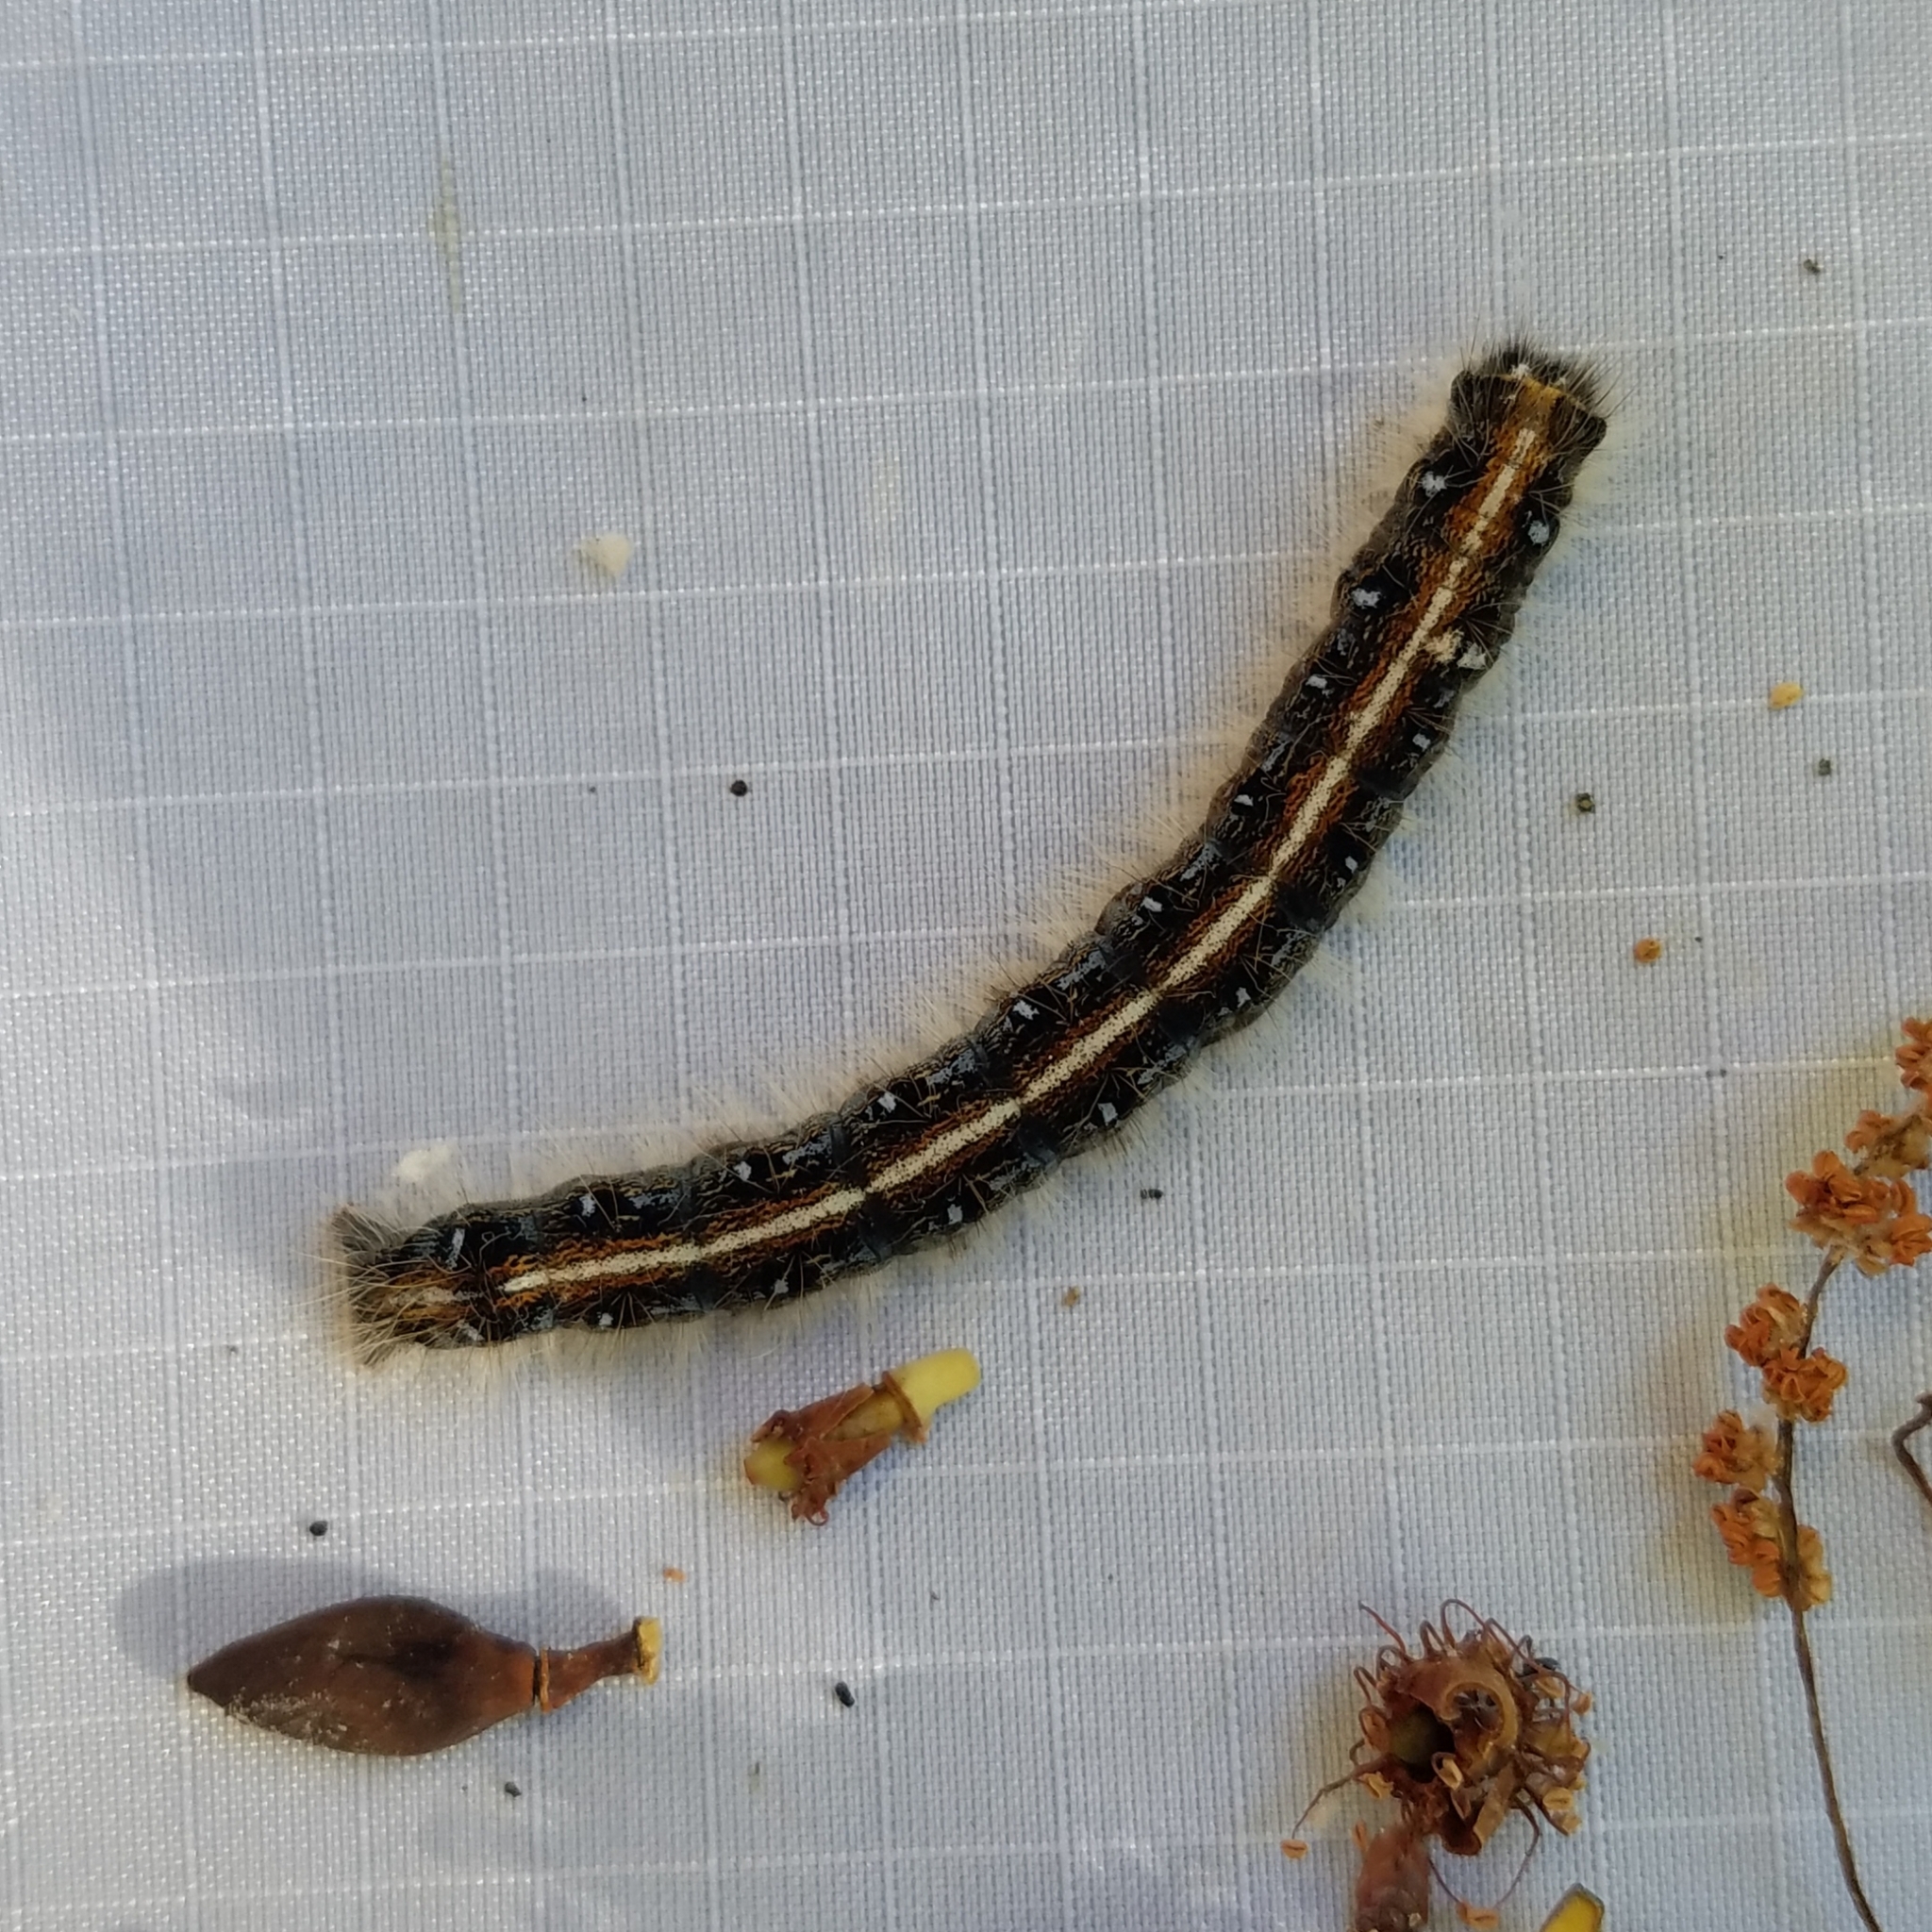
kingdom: Animalia
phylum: Arthropoda
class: Insecta
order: Lepidoptera
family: Lasiocampidae
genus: Malacosoma
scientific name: Malacosoma americana
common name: Eastern tent caterpillar moth
